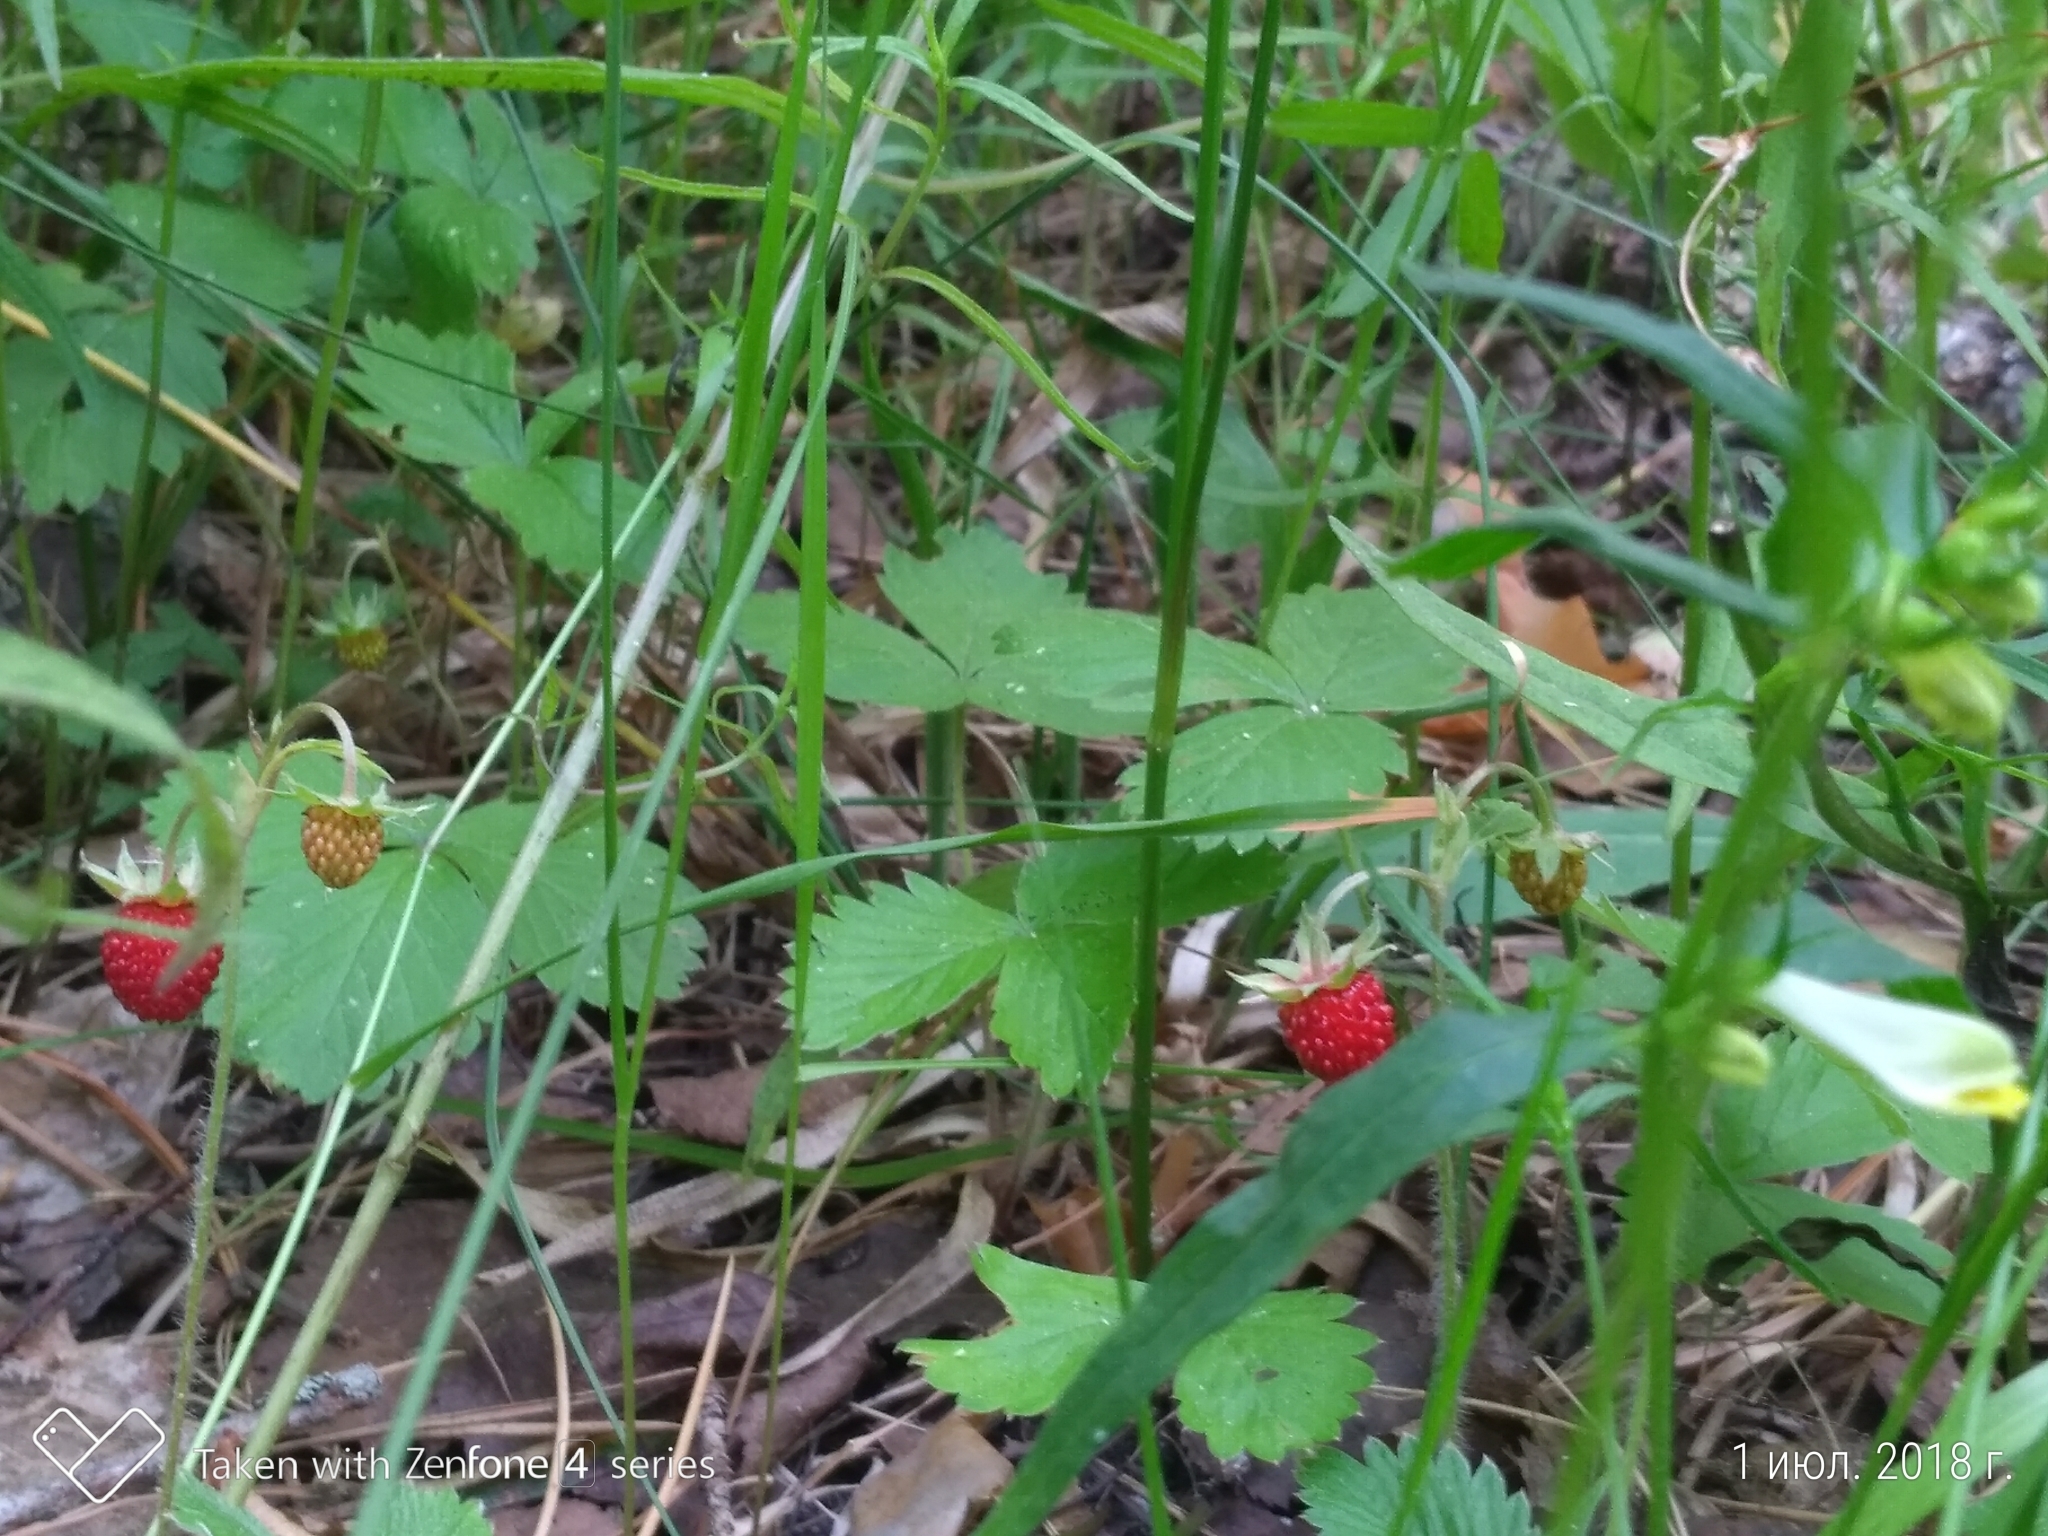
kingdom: Plantae
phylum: Tracheophyta
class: Magnoliopsida
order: Rosales
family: Rosaceae
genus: Fragaria
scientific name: Fragaria vesca
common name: Wild strawberry
